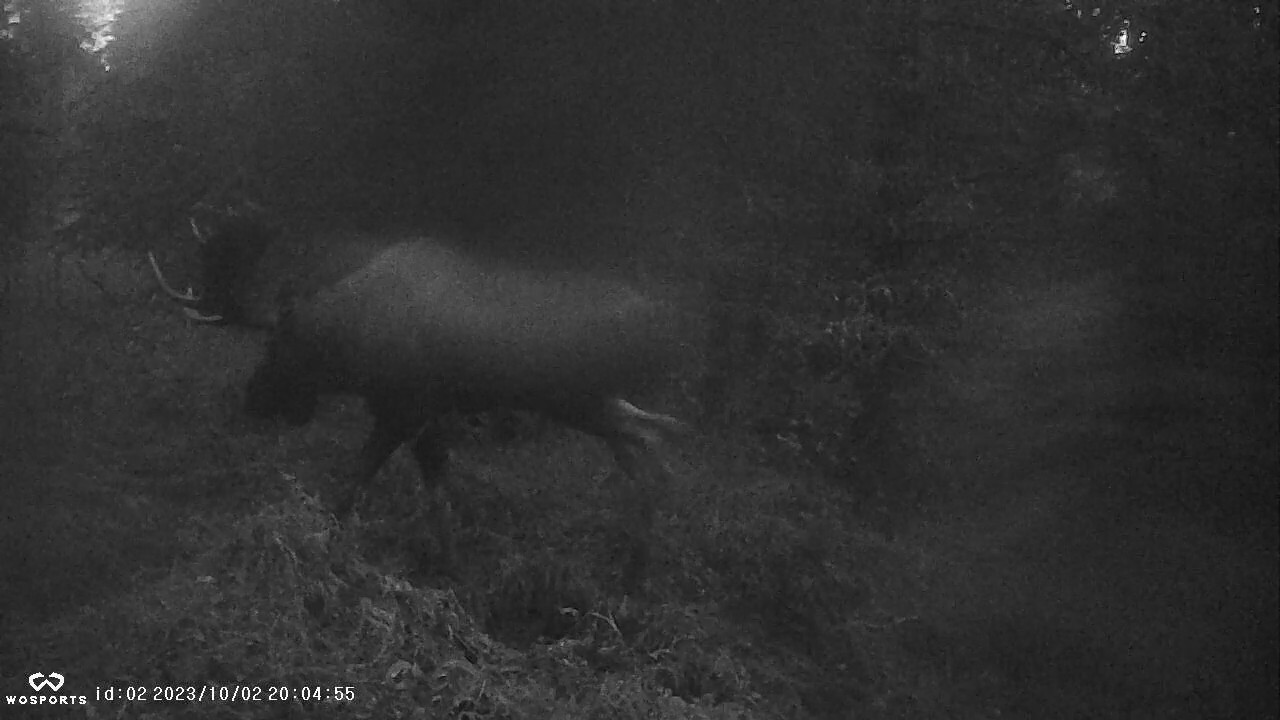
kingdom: Animalia
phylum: Chordata
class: Mammalia
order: Artiodactyla
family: Cervidae
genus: Alces
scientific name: Alces alces
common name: Moose
